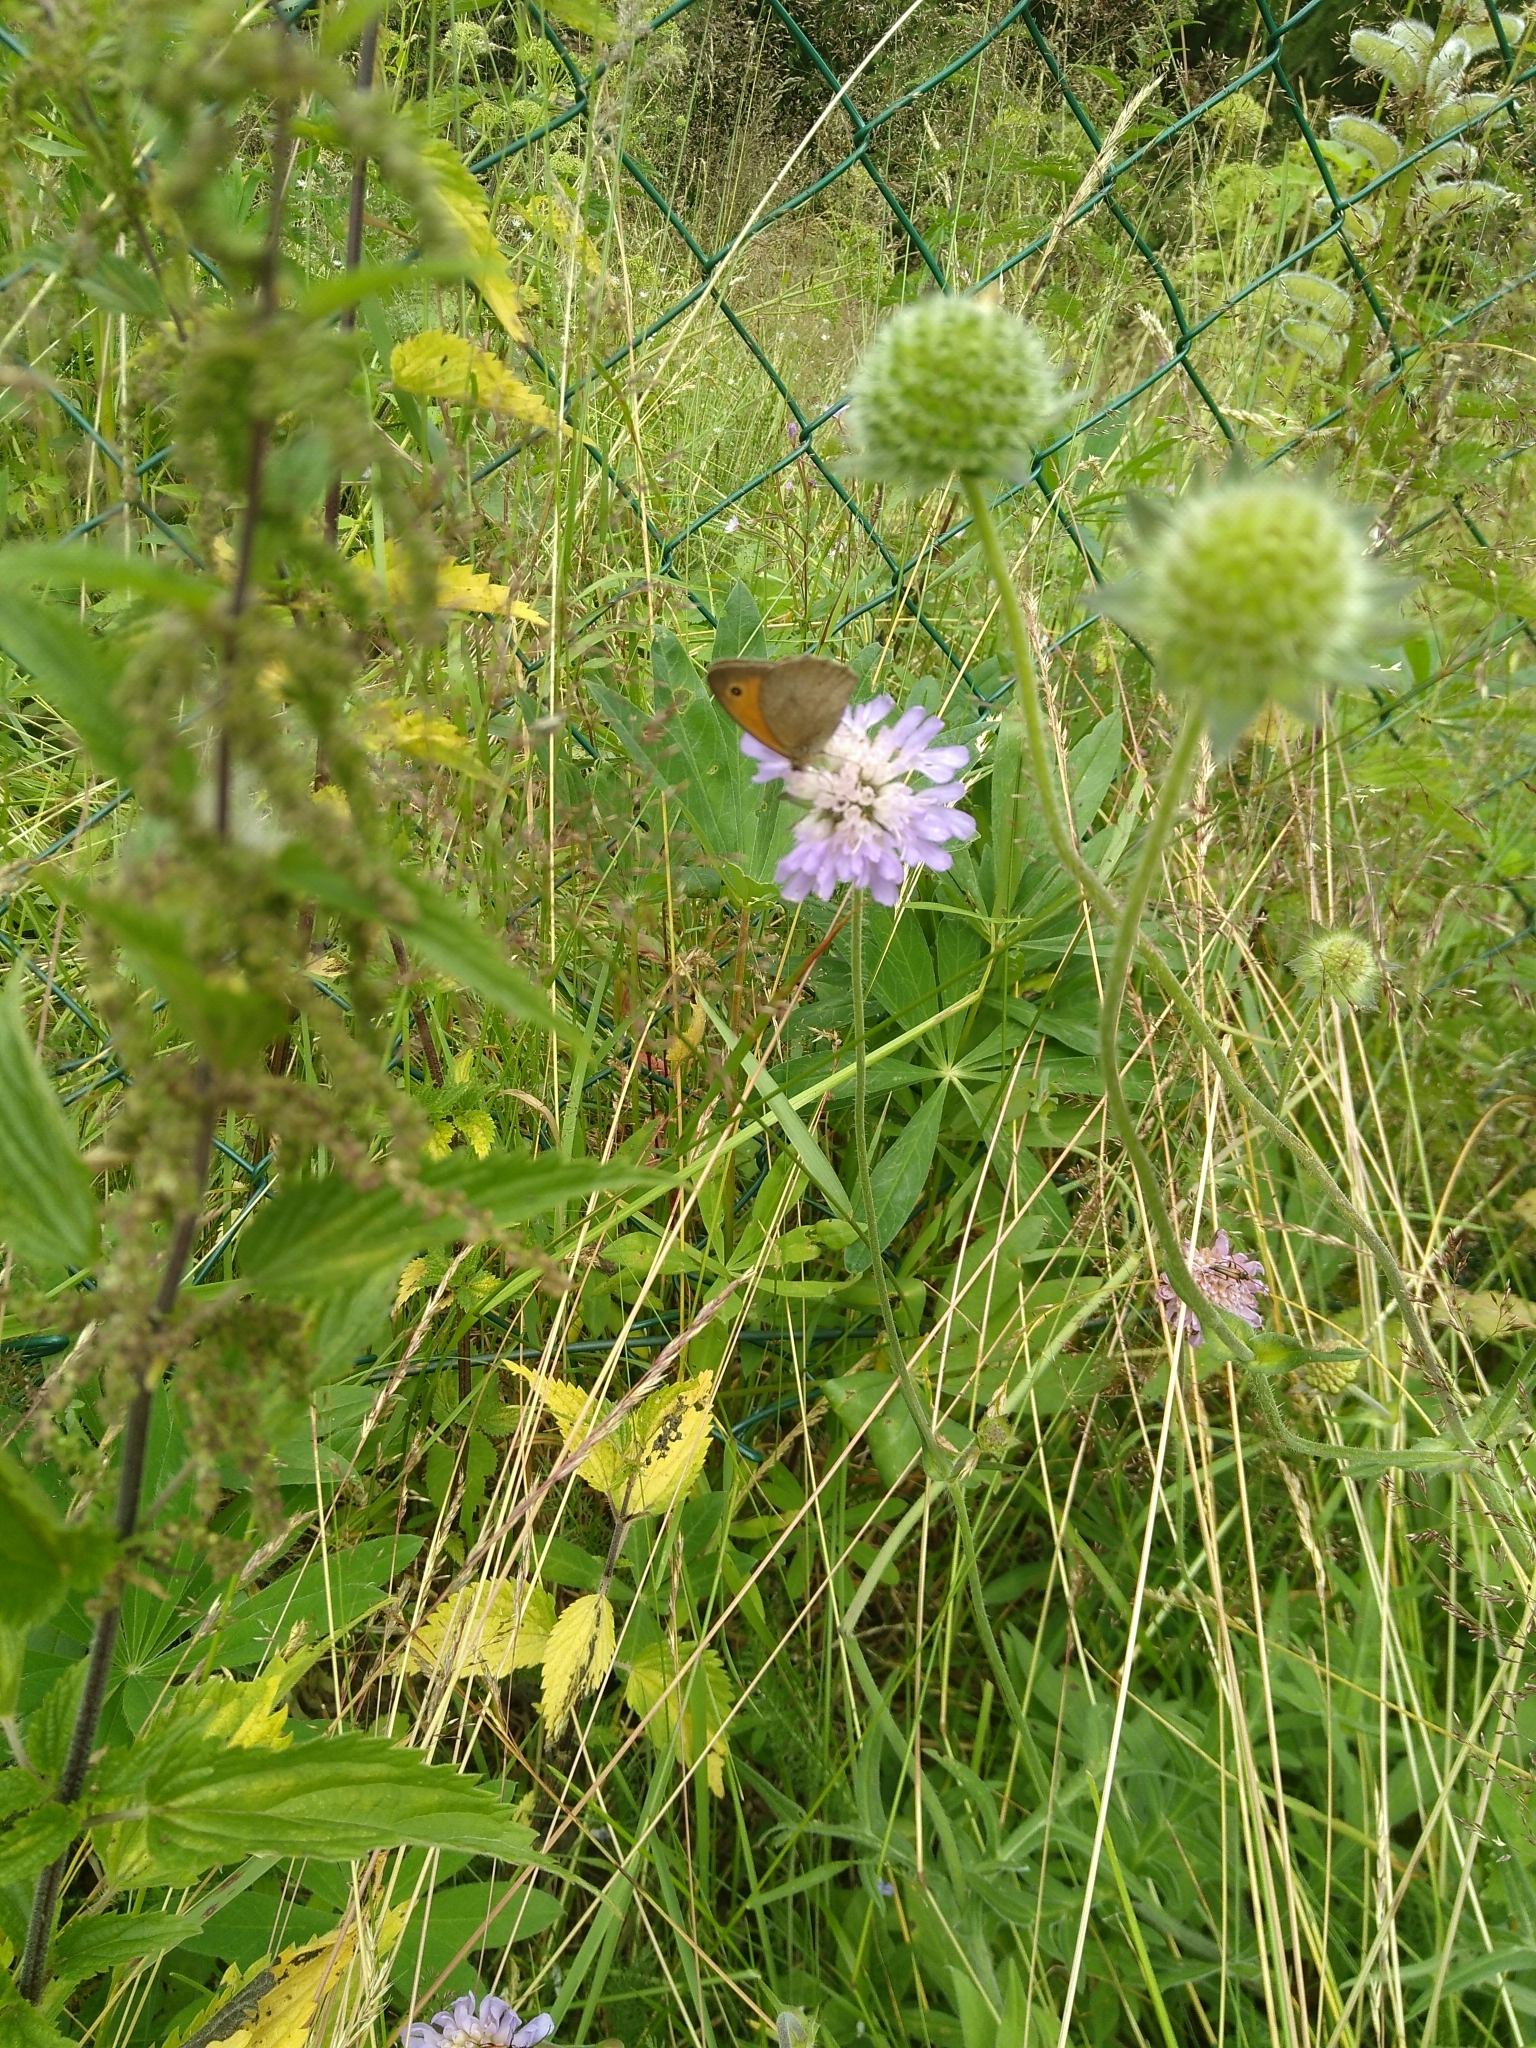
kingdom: Animalia
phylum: Arthropoda
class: Insecta
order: Lepidoptera
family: Nymphalidae
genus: Maniola
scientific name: Maniola jurtina
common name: Meadow brown
